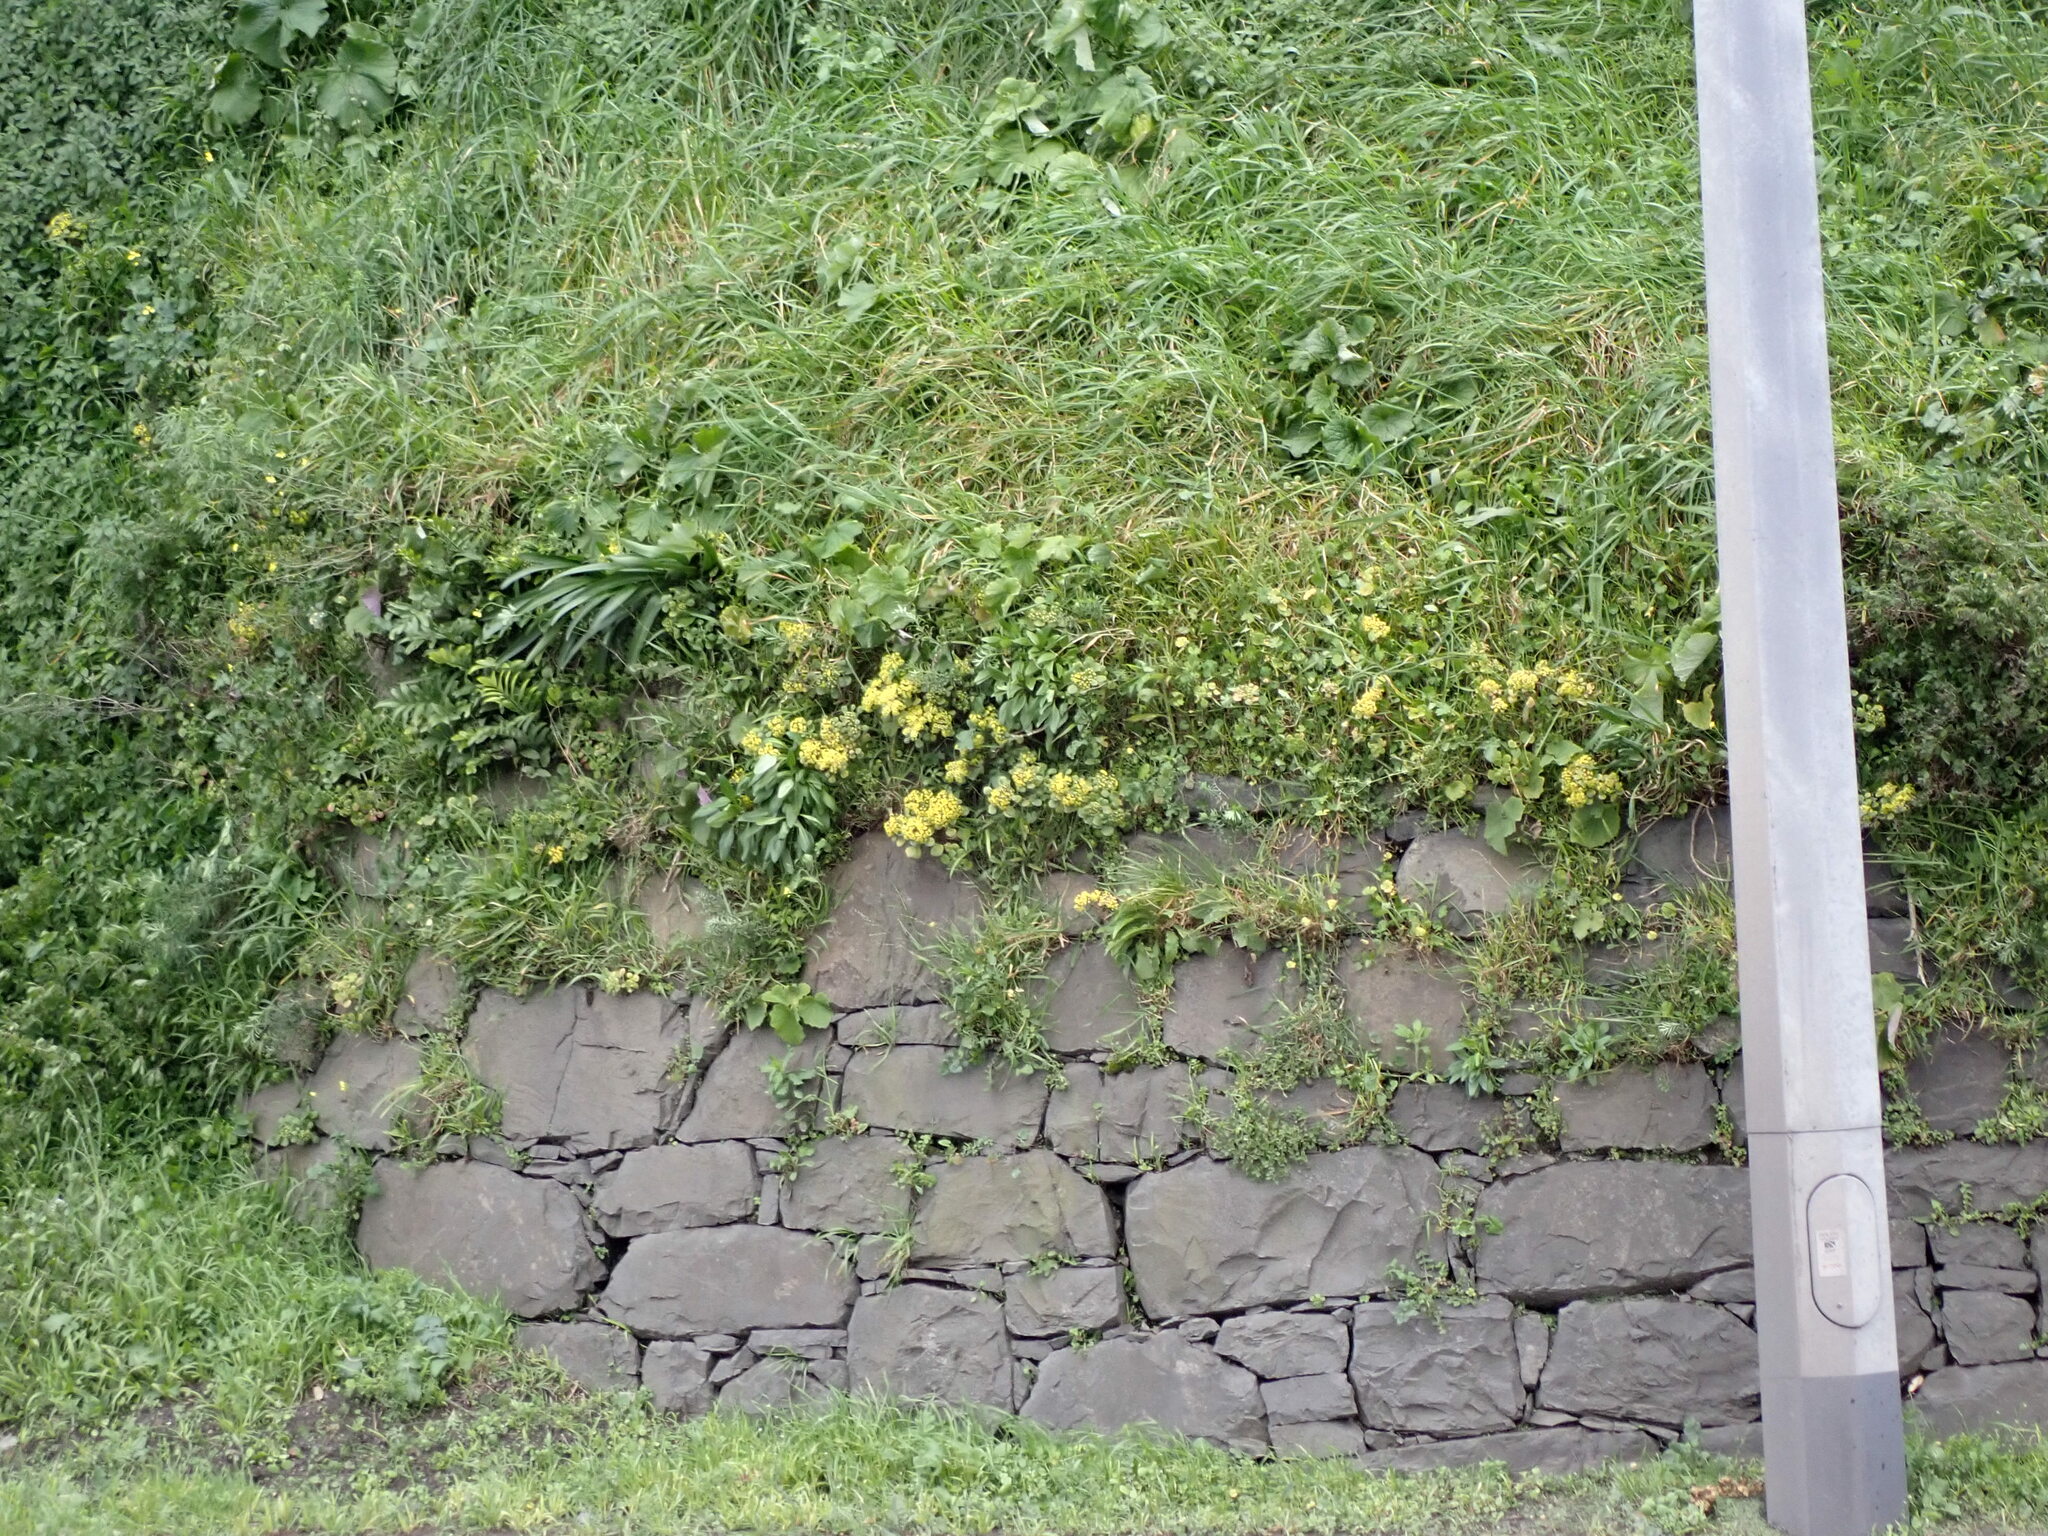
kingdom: Plantae
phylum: Tracheophyta
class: Magnoliopsida
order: Saxifragales
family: Crassulaceae
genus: Aichryson
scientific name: Aichryson laxum
